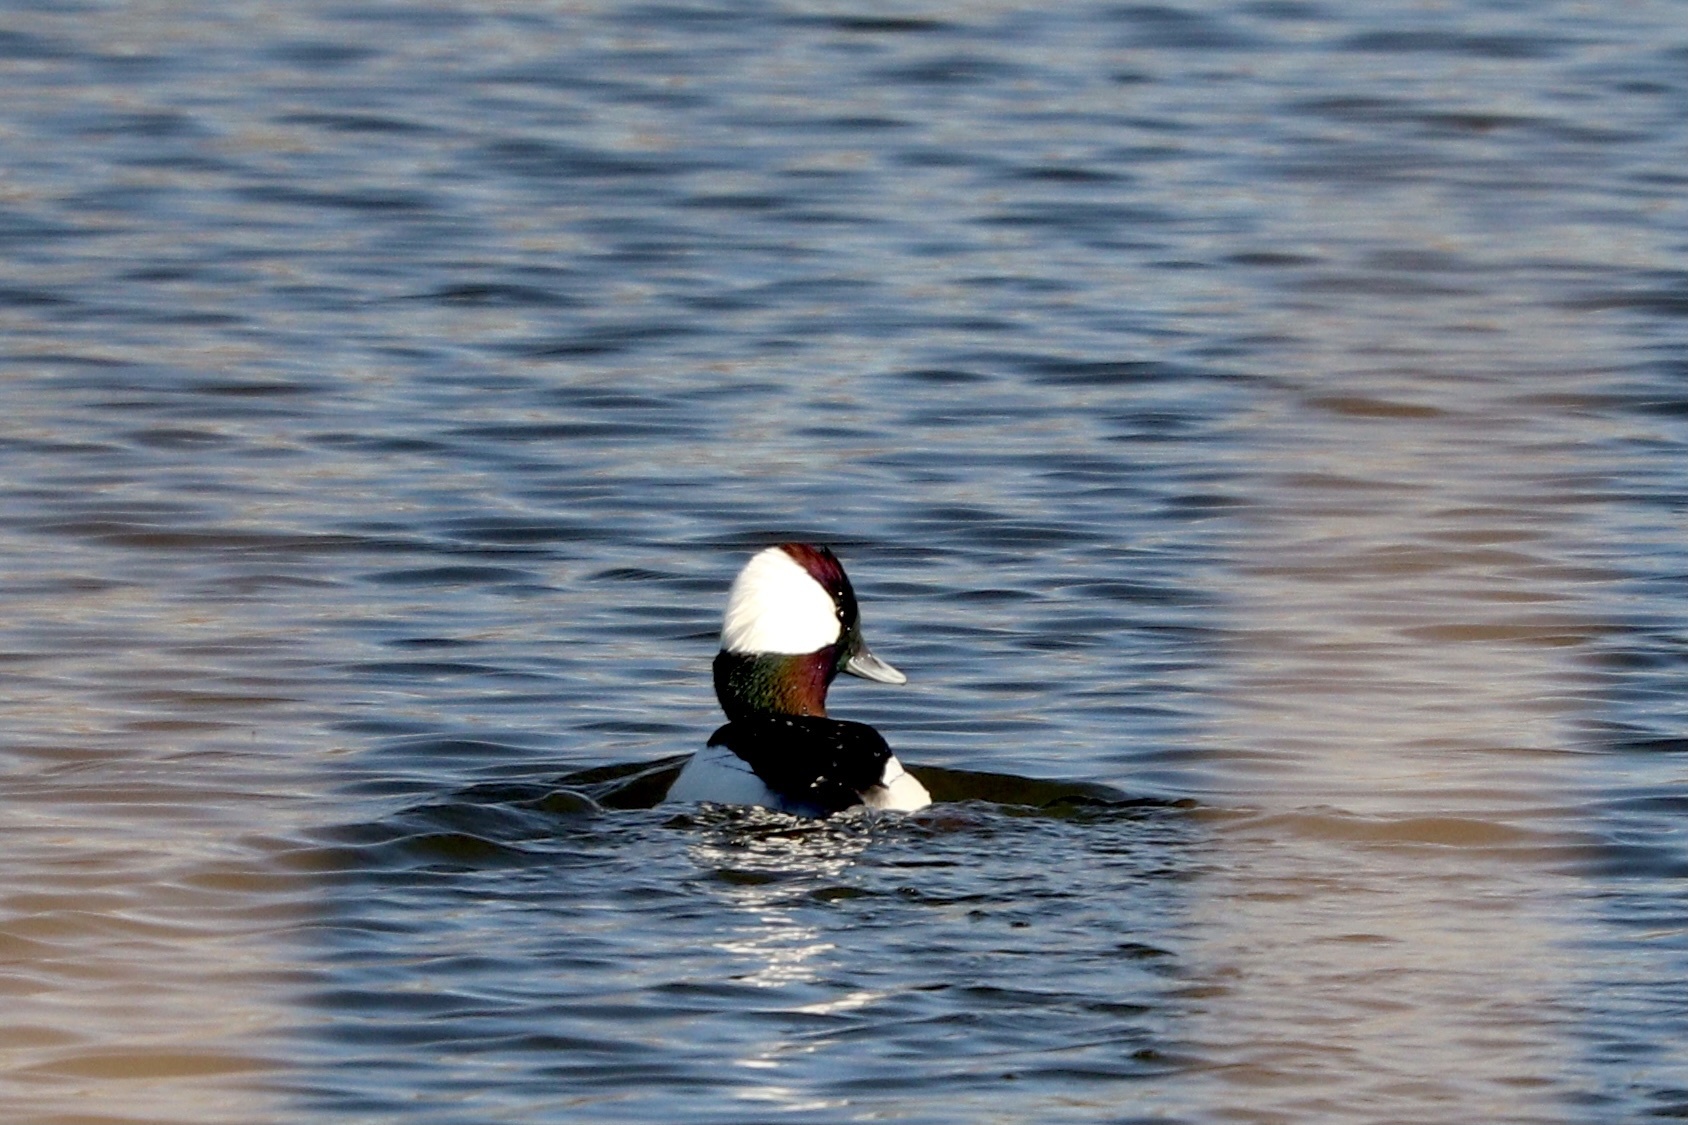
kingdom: Animalia
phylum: Chordata
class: Aves
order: Anseriformes
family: Anatidae
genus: Bucephala
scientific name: Bucephala albeola
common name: Bufflehead
